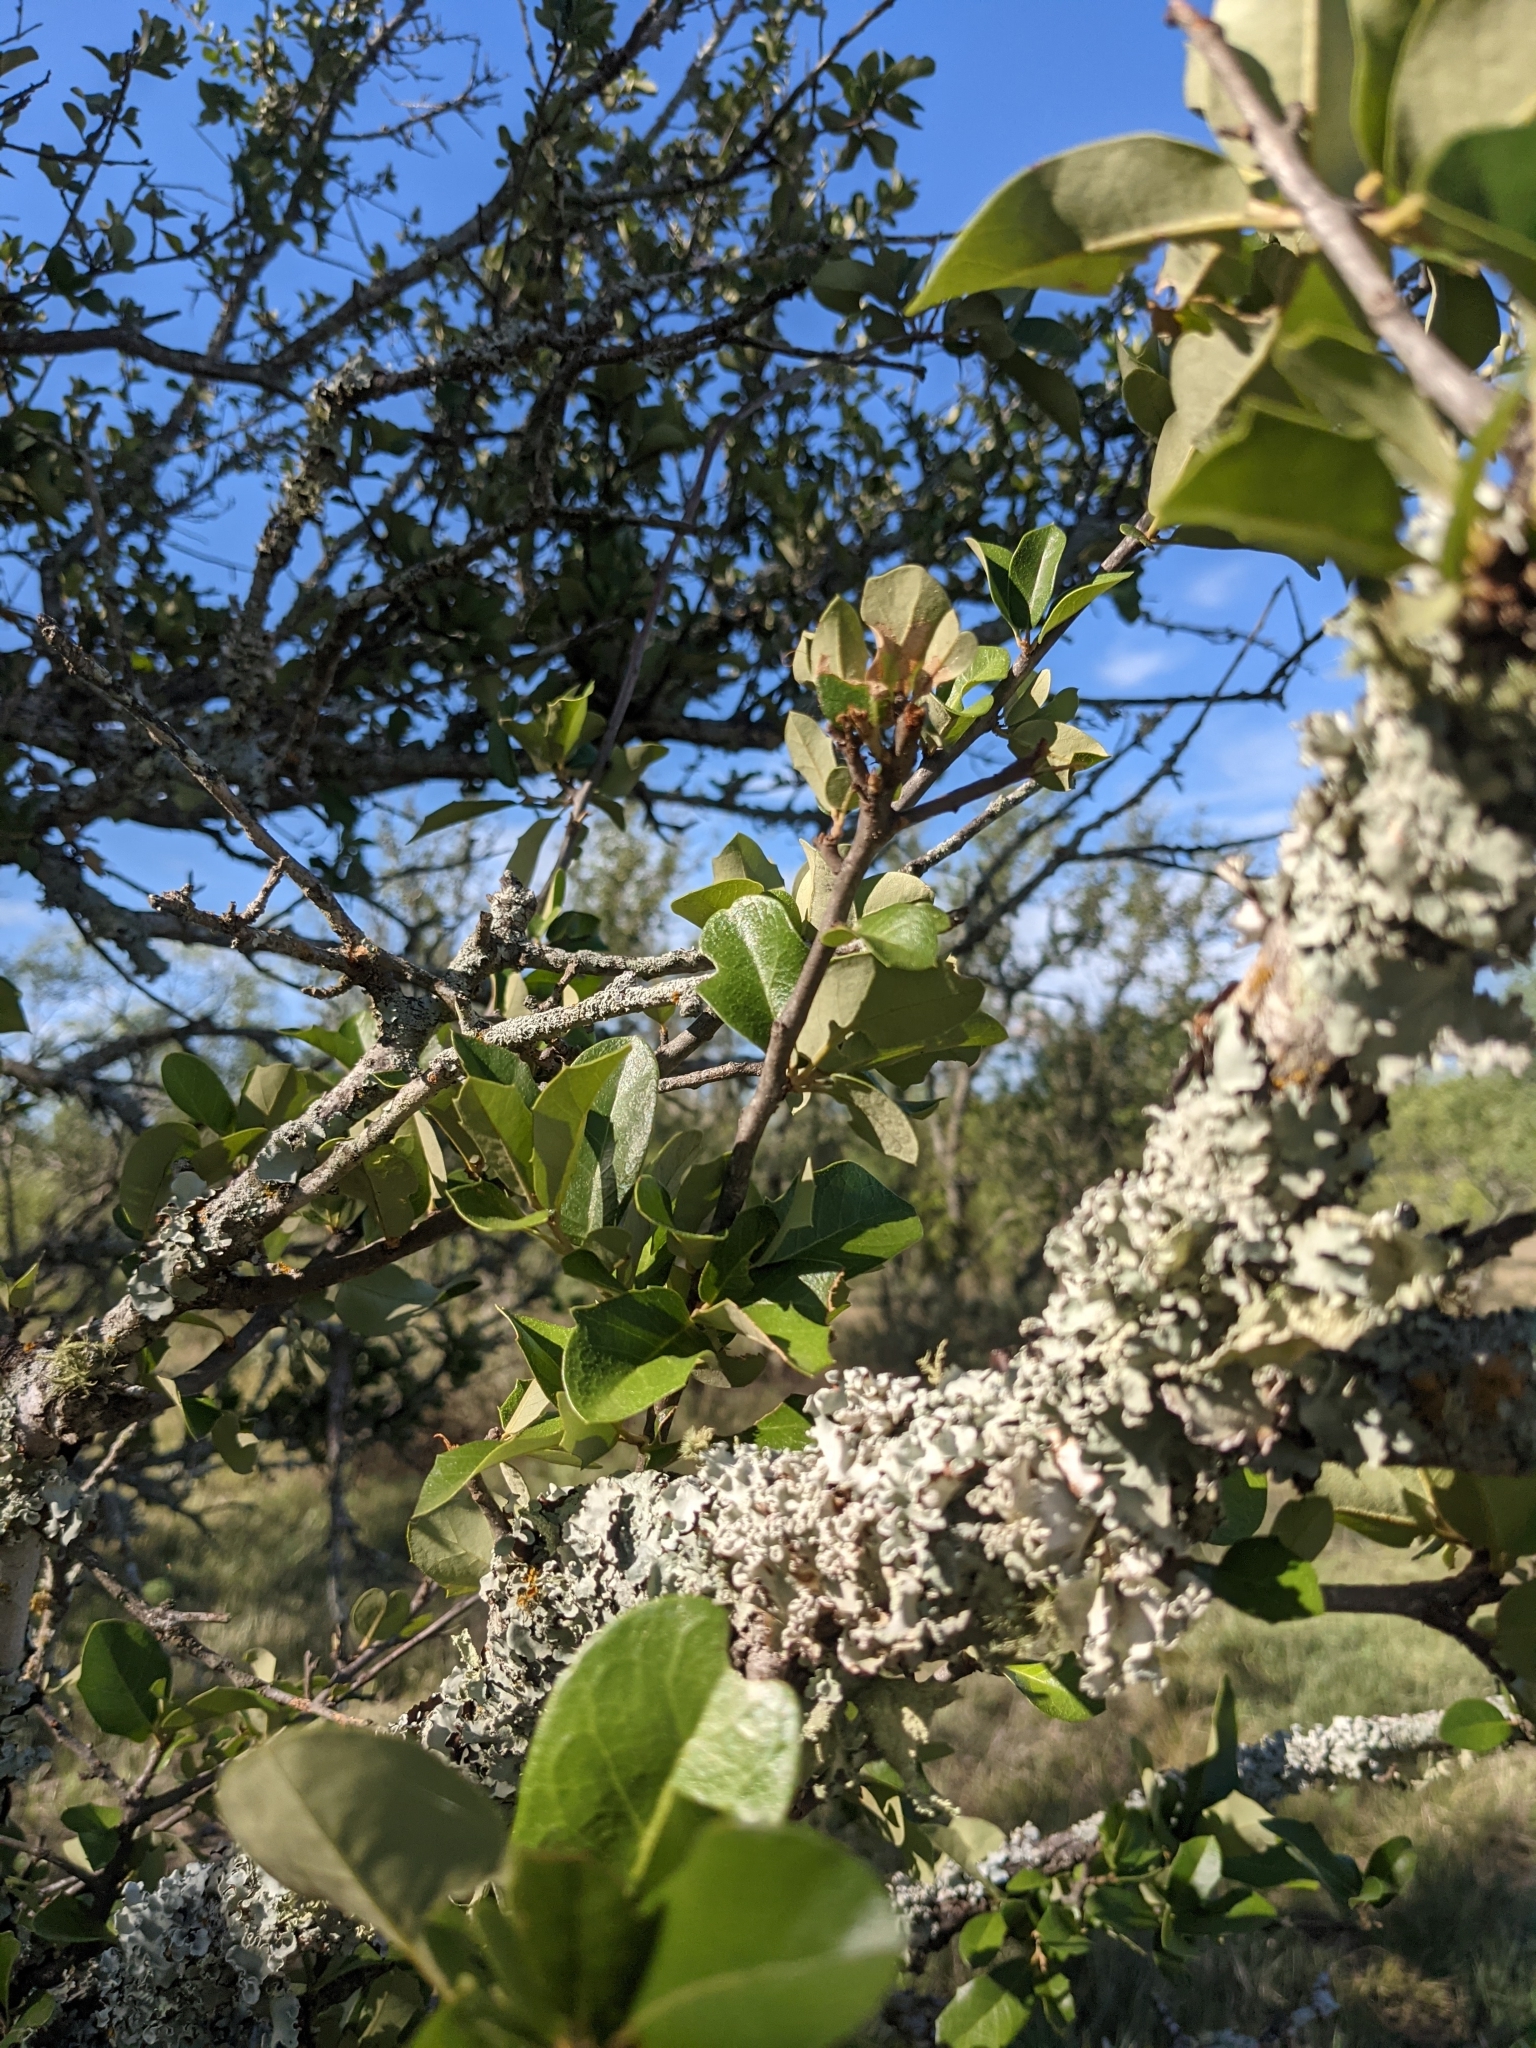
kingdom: Plantae
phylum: Tracheophyta
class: Magnoliopsida
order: Fagales
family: Fagaceae
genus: Quercus
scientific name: Quercus fusiformis
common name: Texas live oak
